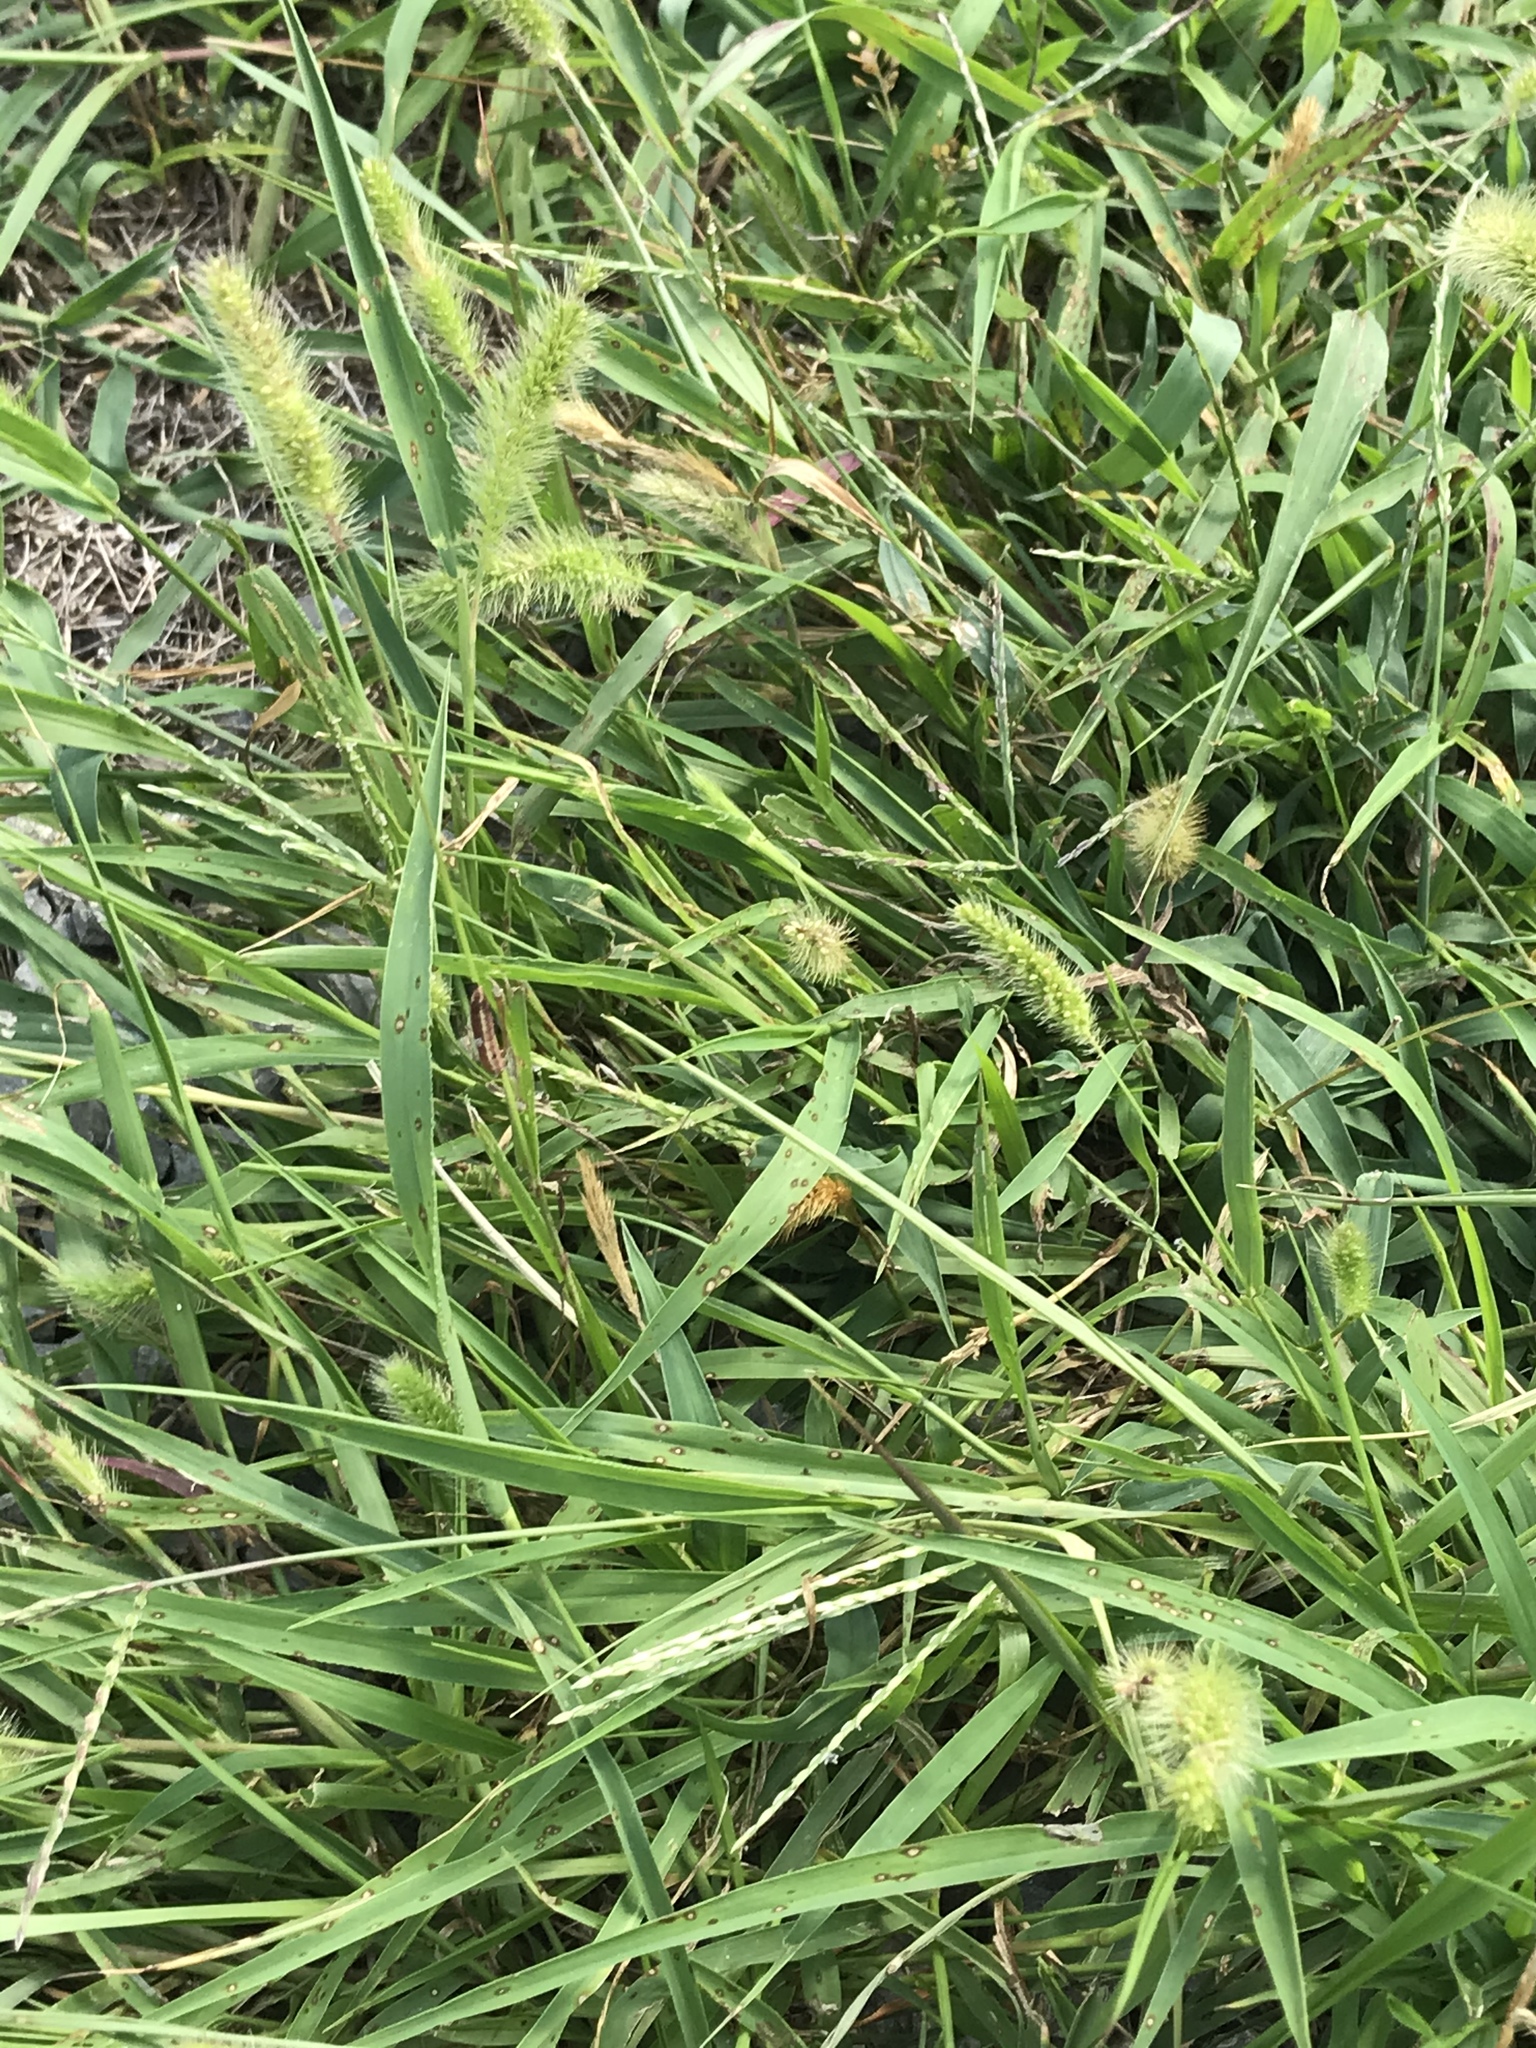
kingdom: Plantae
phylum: Tracheophyta
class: Liliopsida
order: Poales
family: Poaceae
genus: Setaria
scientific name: Setaria viridis
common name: Green bristlegrass
